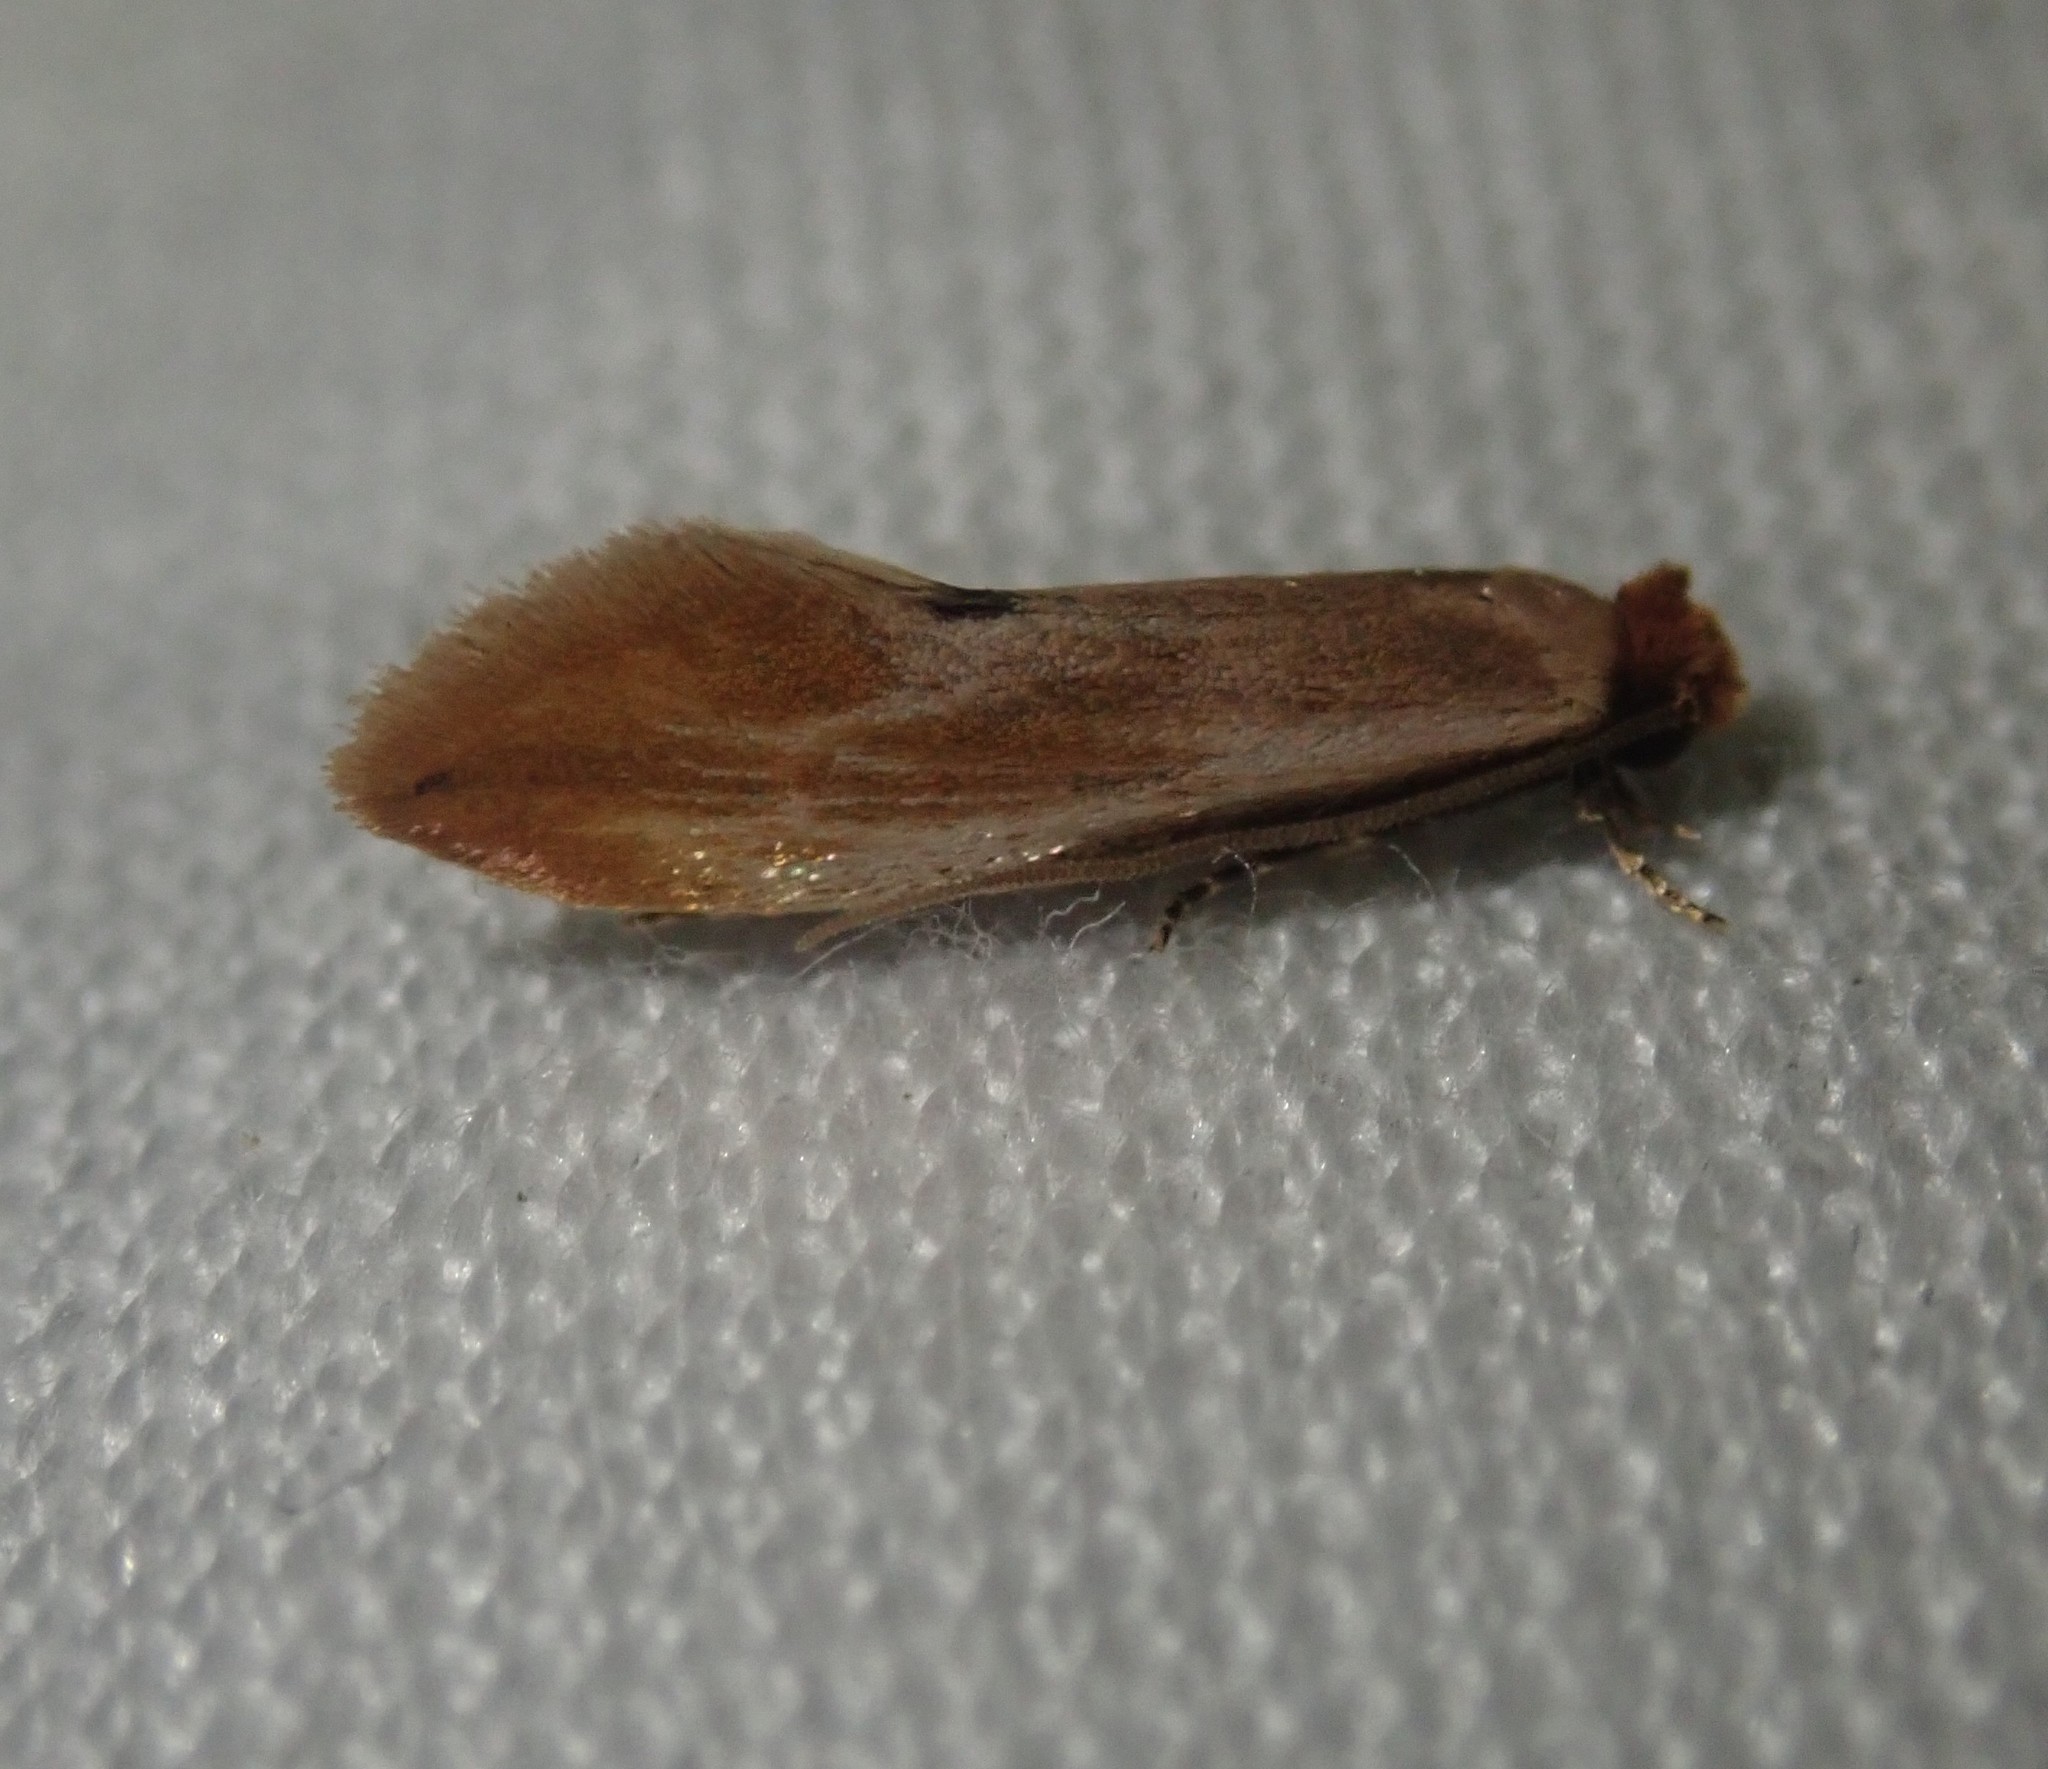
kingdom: Animalia
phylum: Arthropoda
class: Insecta
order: Lepidoptera
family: Tineidae
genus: Tinea
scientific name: Tinea semifulvella
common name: Fulvous clothes
